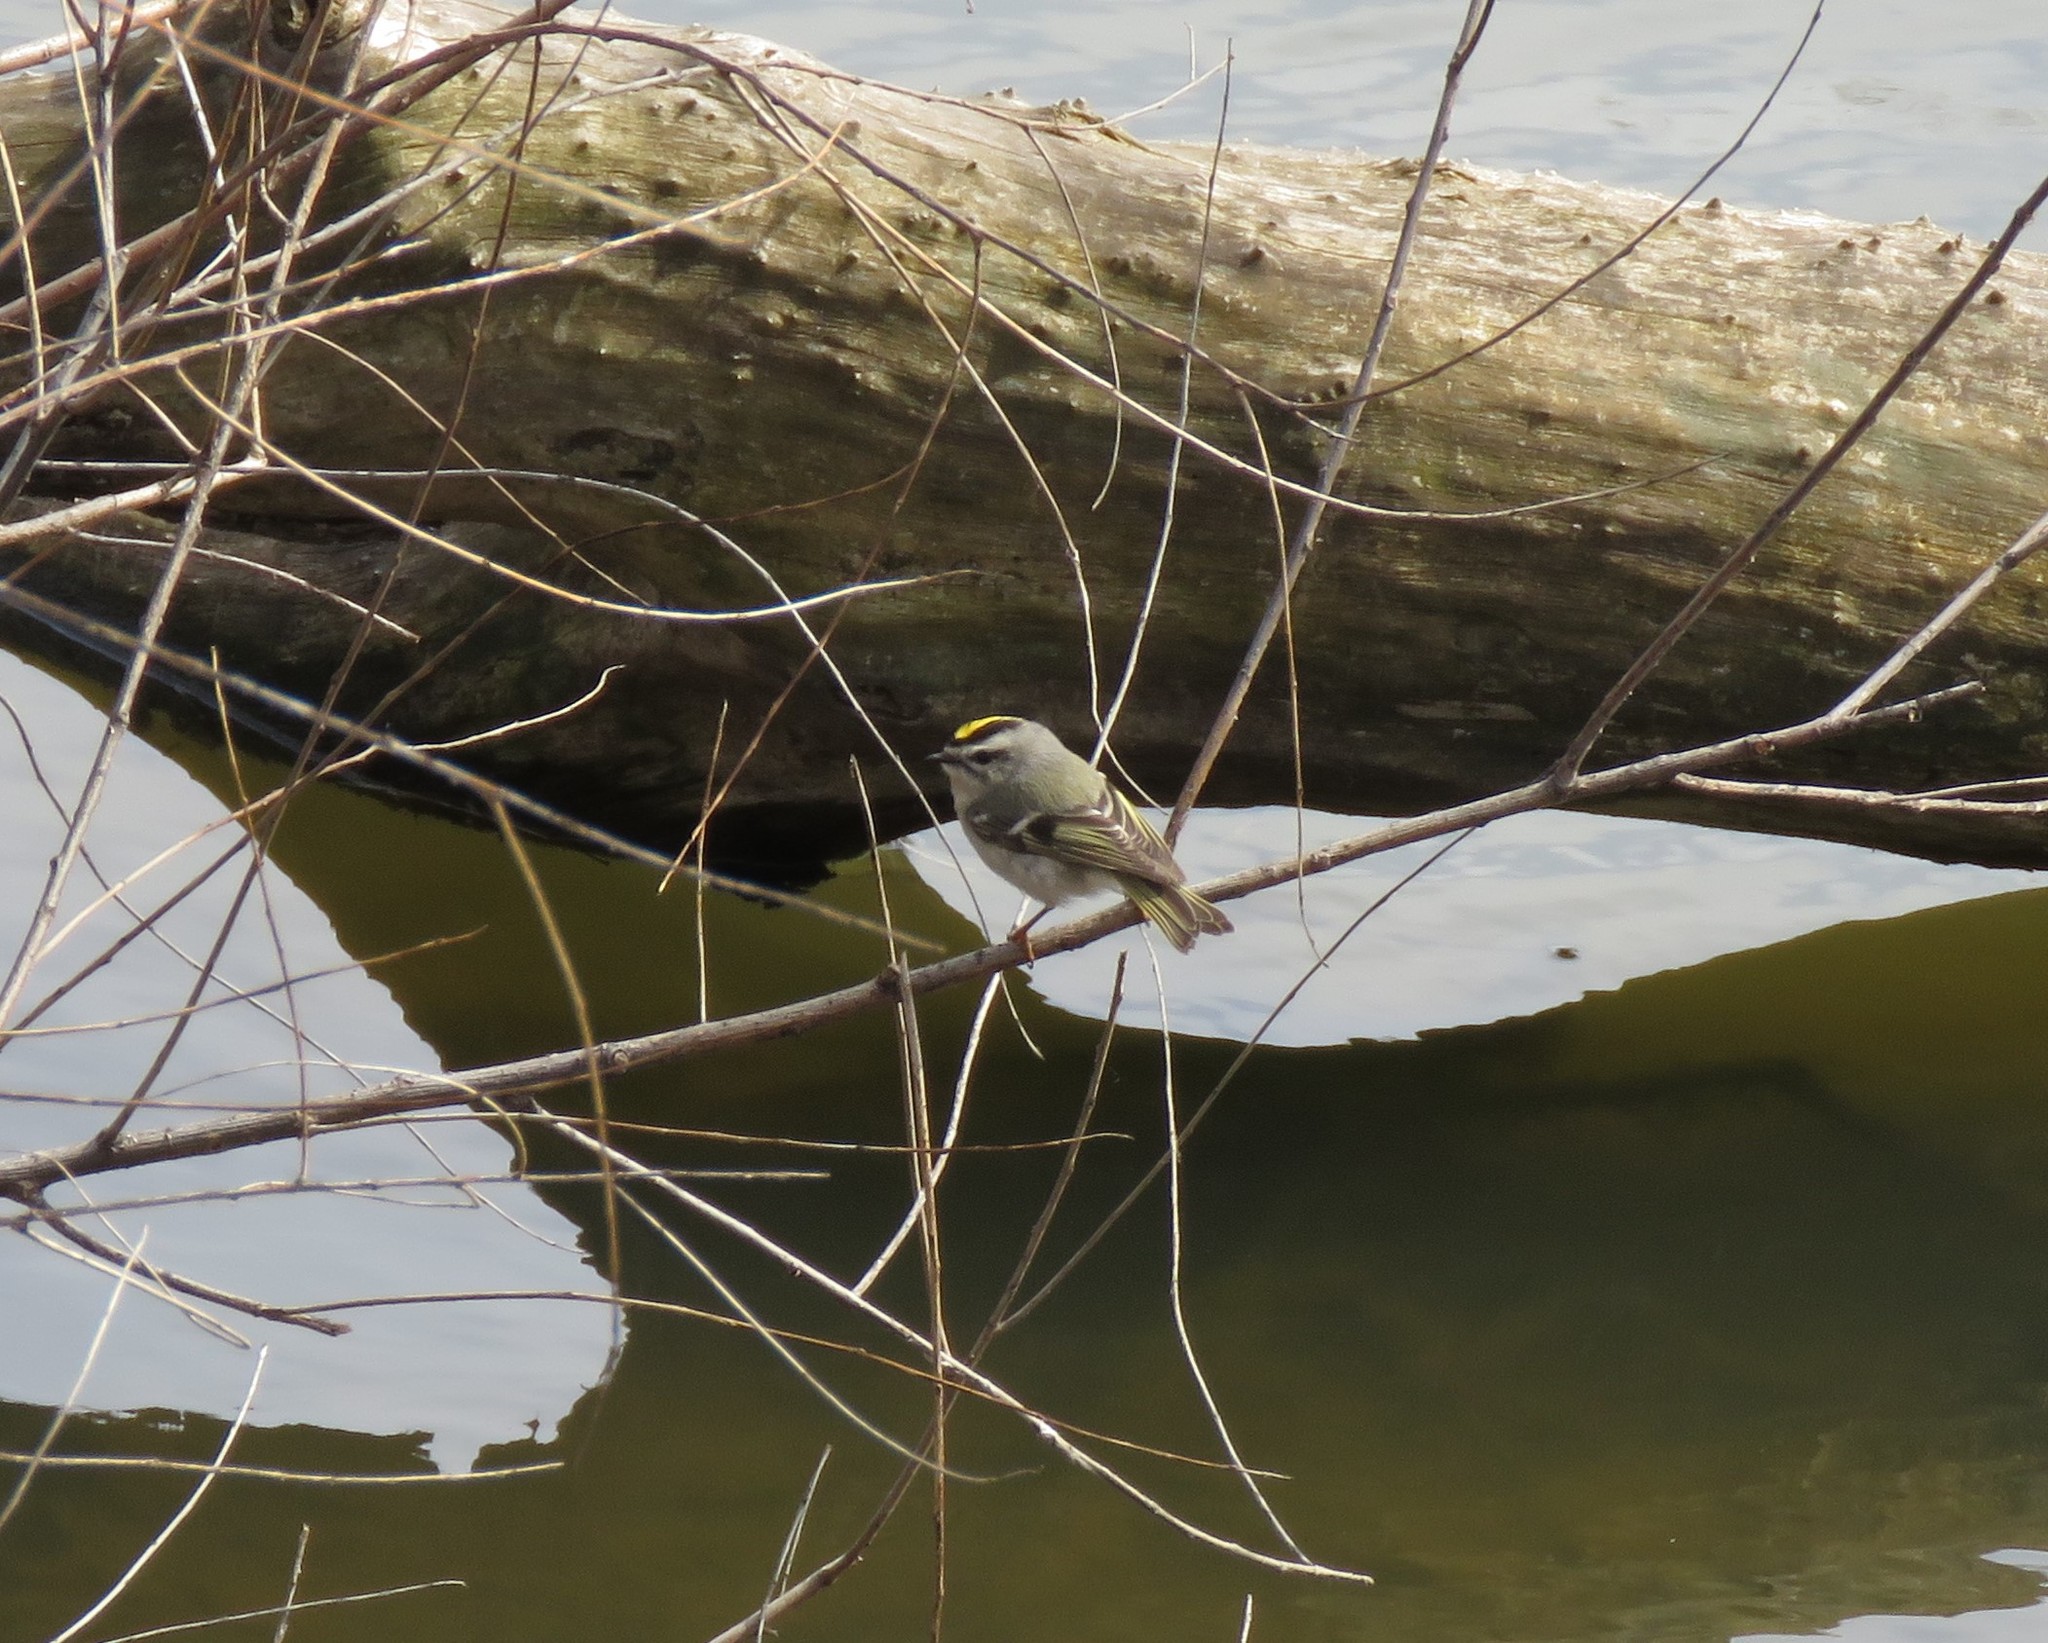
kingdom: Animalia
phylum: Chordata
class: Aves
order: Passeriformes
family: Regulidae
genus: Regulus
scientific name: Regulus satrapa
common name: Golden-crowned kinglet
